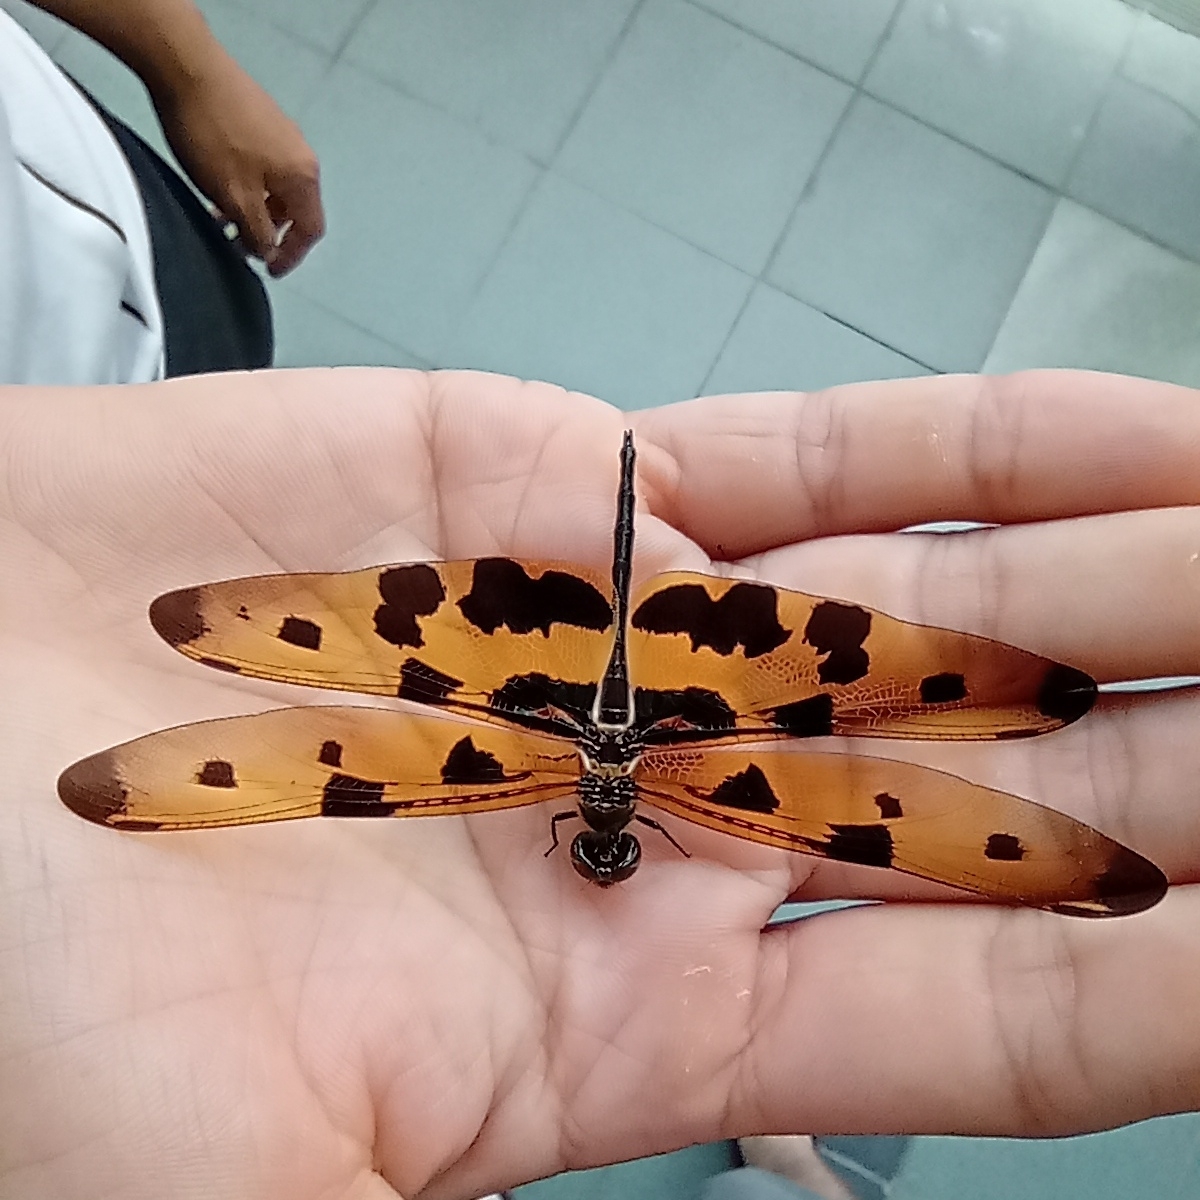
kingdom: Animalia
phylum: Arthropoda
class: Insecta
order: Odonata
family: Libellulidae
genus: Rhyothemis
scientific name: Rhyothemis variegata
